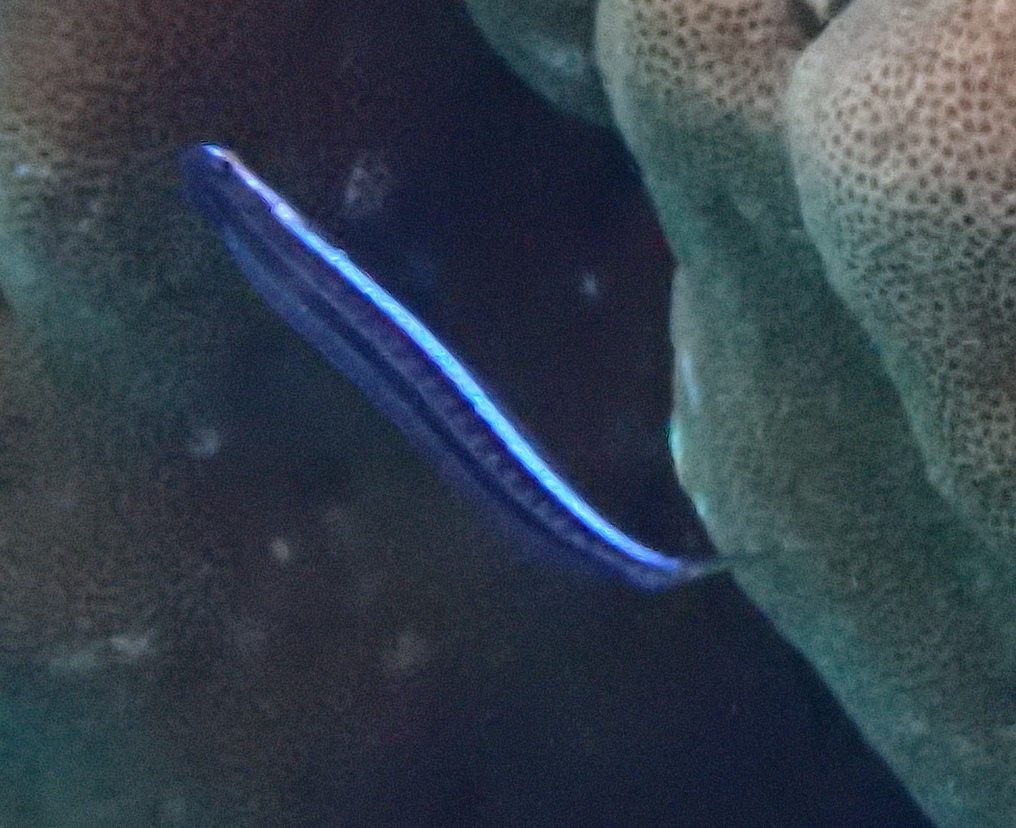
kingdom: Animalia
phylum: Chordata
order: Perciformes
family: Blenniidae
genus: Plagiotremus
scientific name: Plagiotremus tapeinosoma
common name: Hit and run blenny
